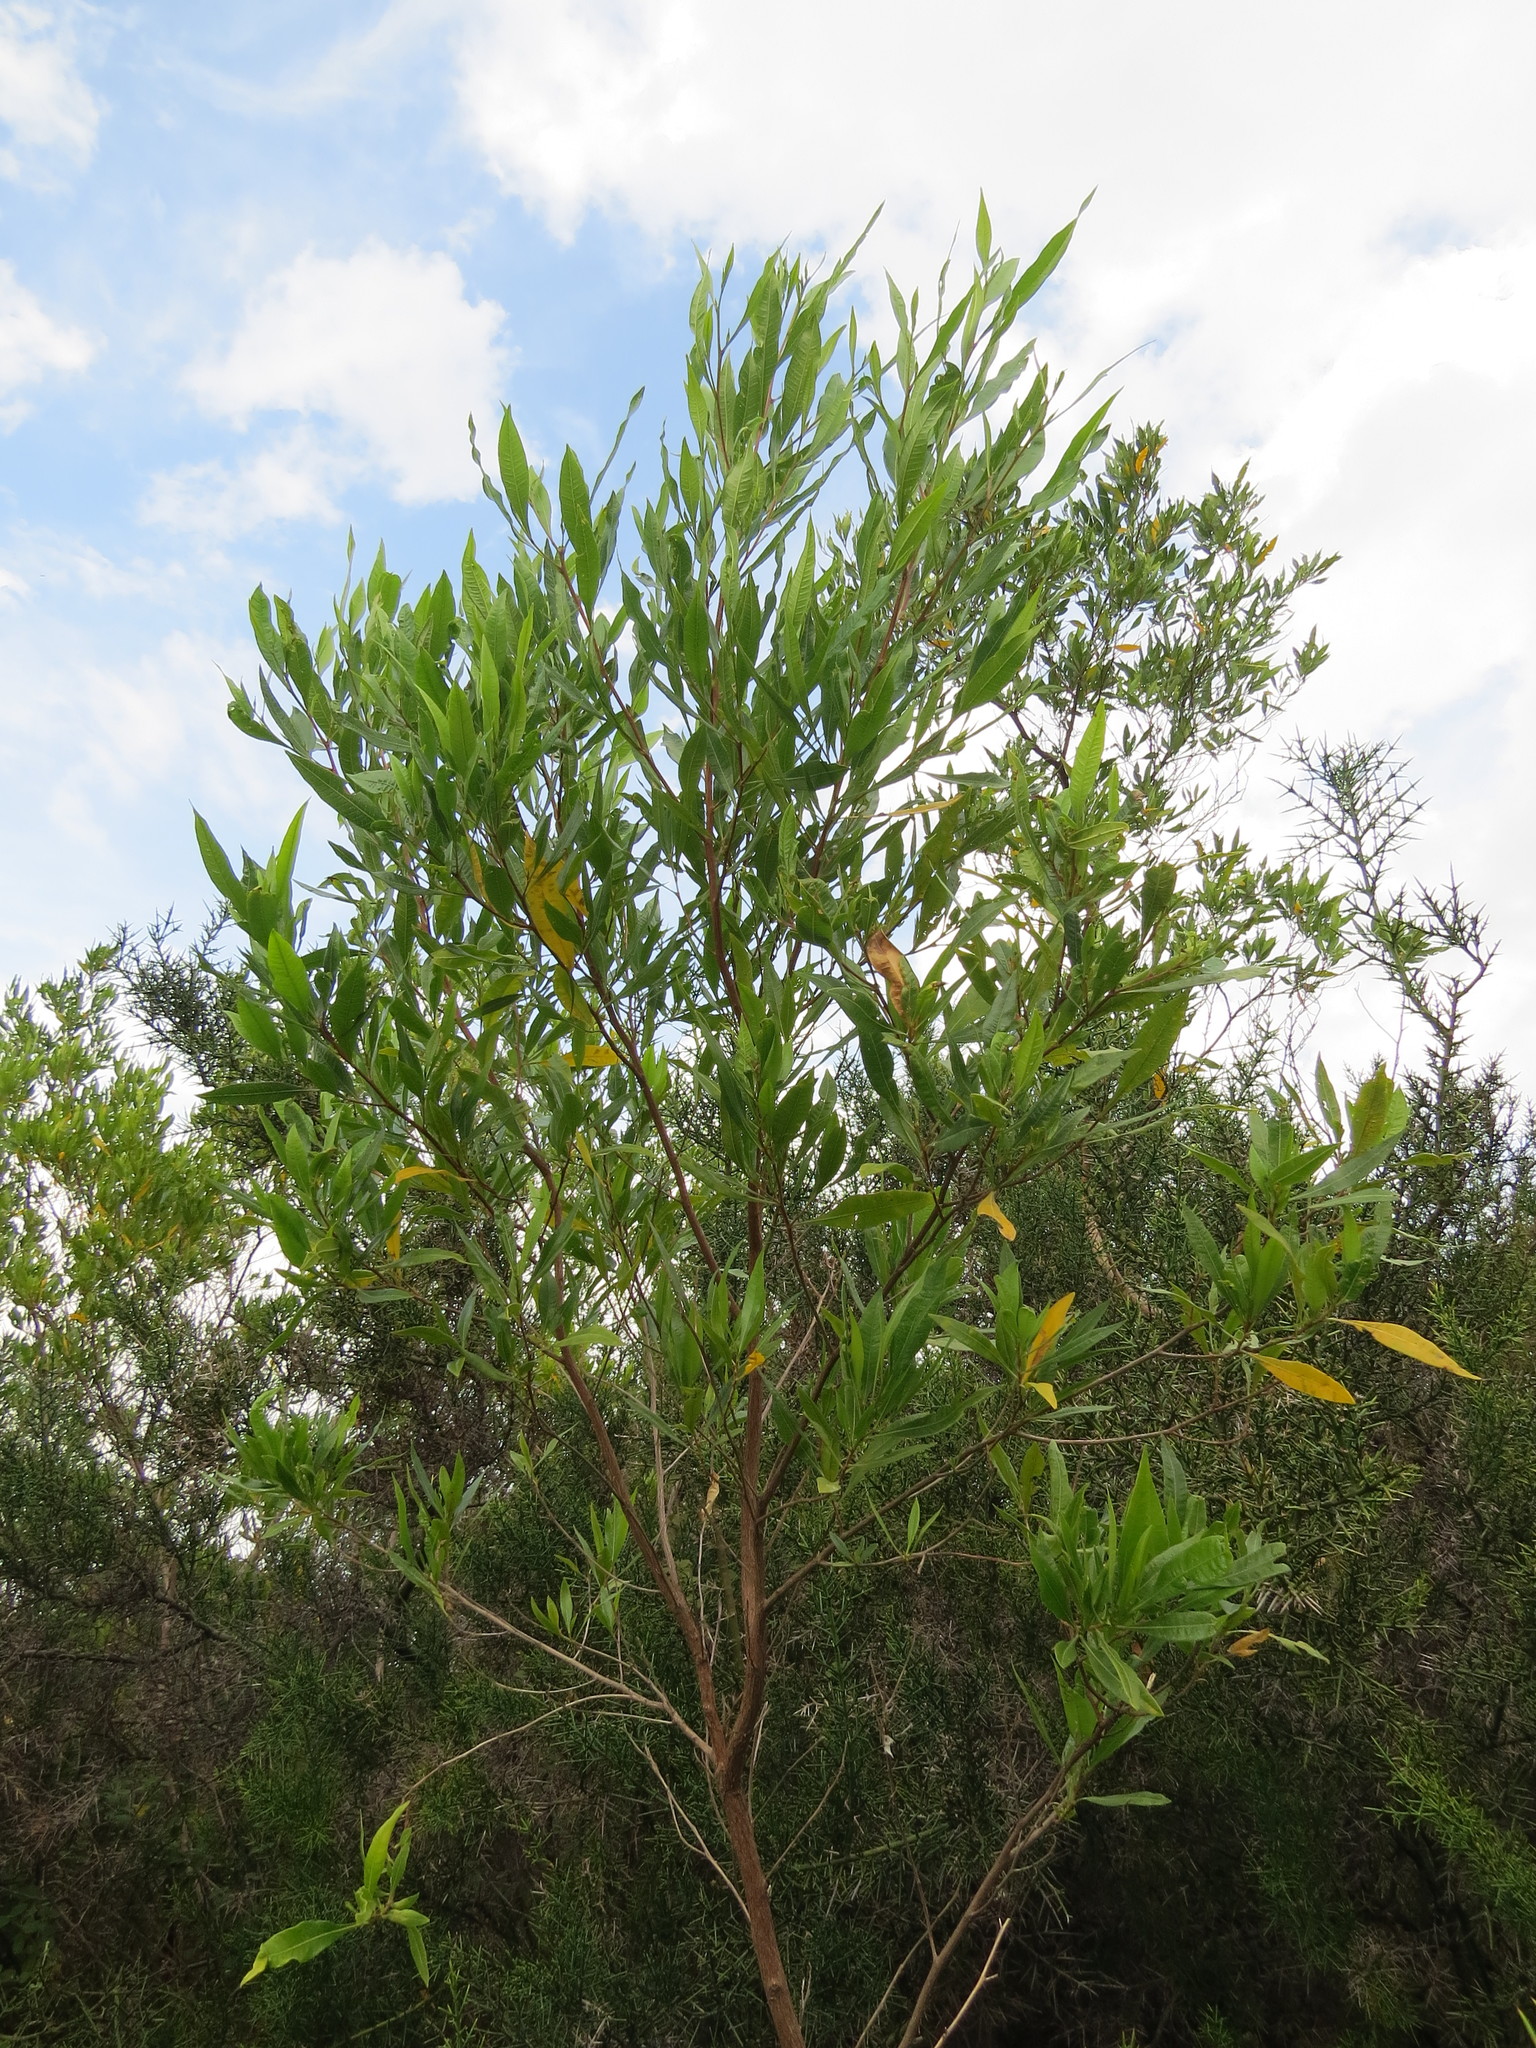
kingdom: Plantae
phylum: Tracheophyta
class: Magnoliopsida
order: Sapindales
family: Sapindaceae
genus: Dodonaea
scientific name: Dodonaea viscosa
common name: Hopbush
